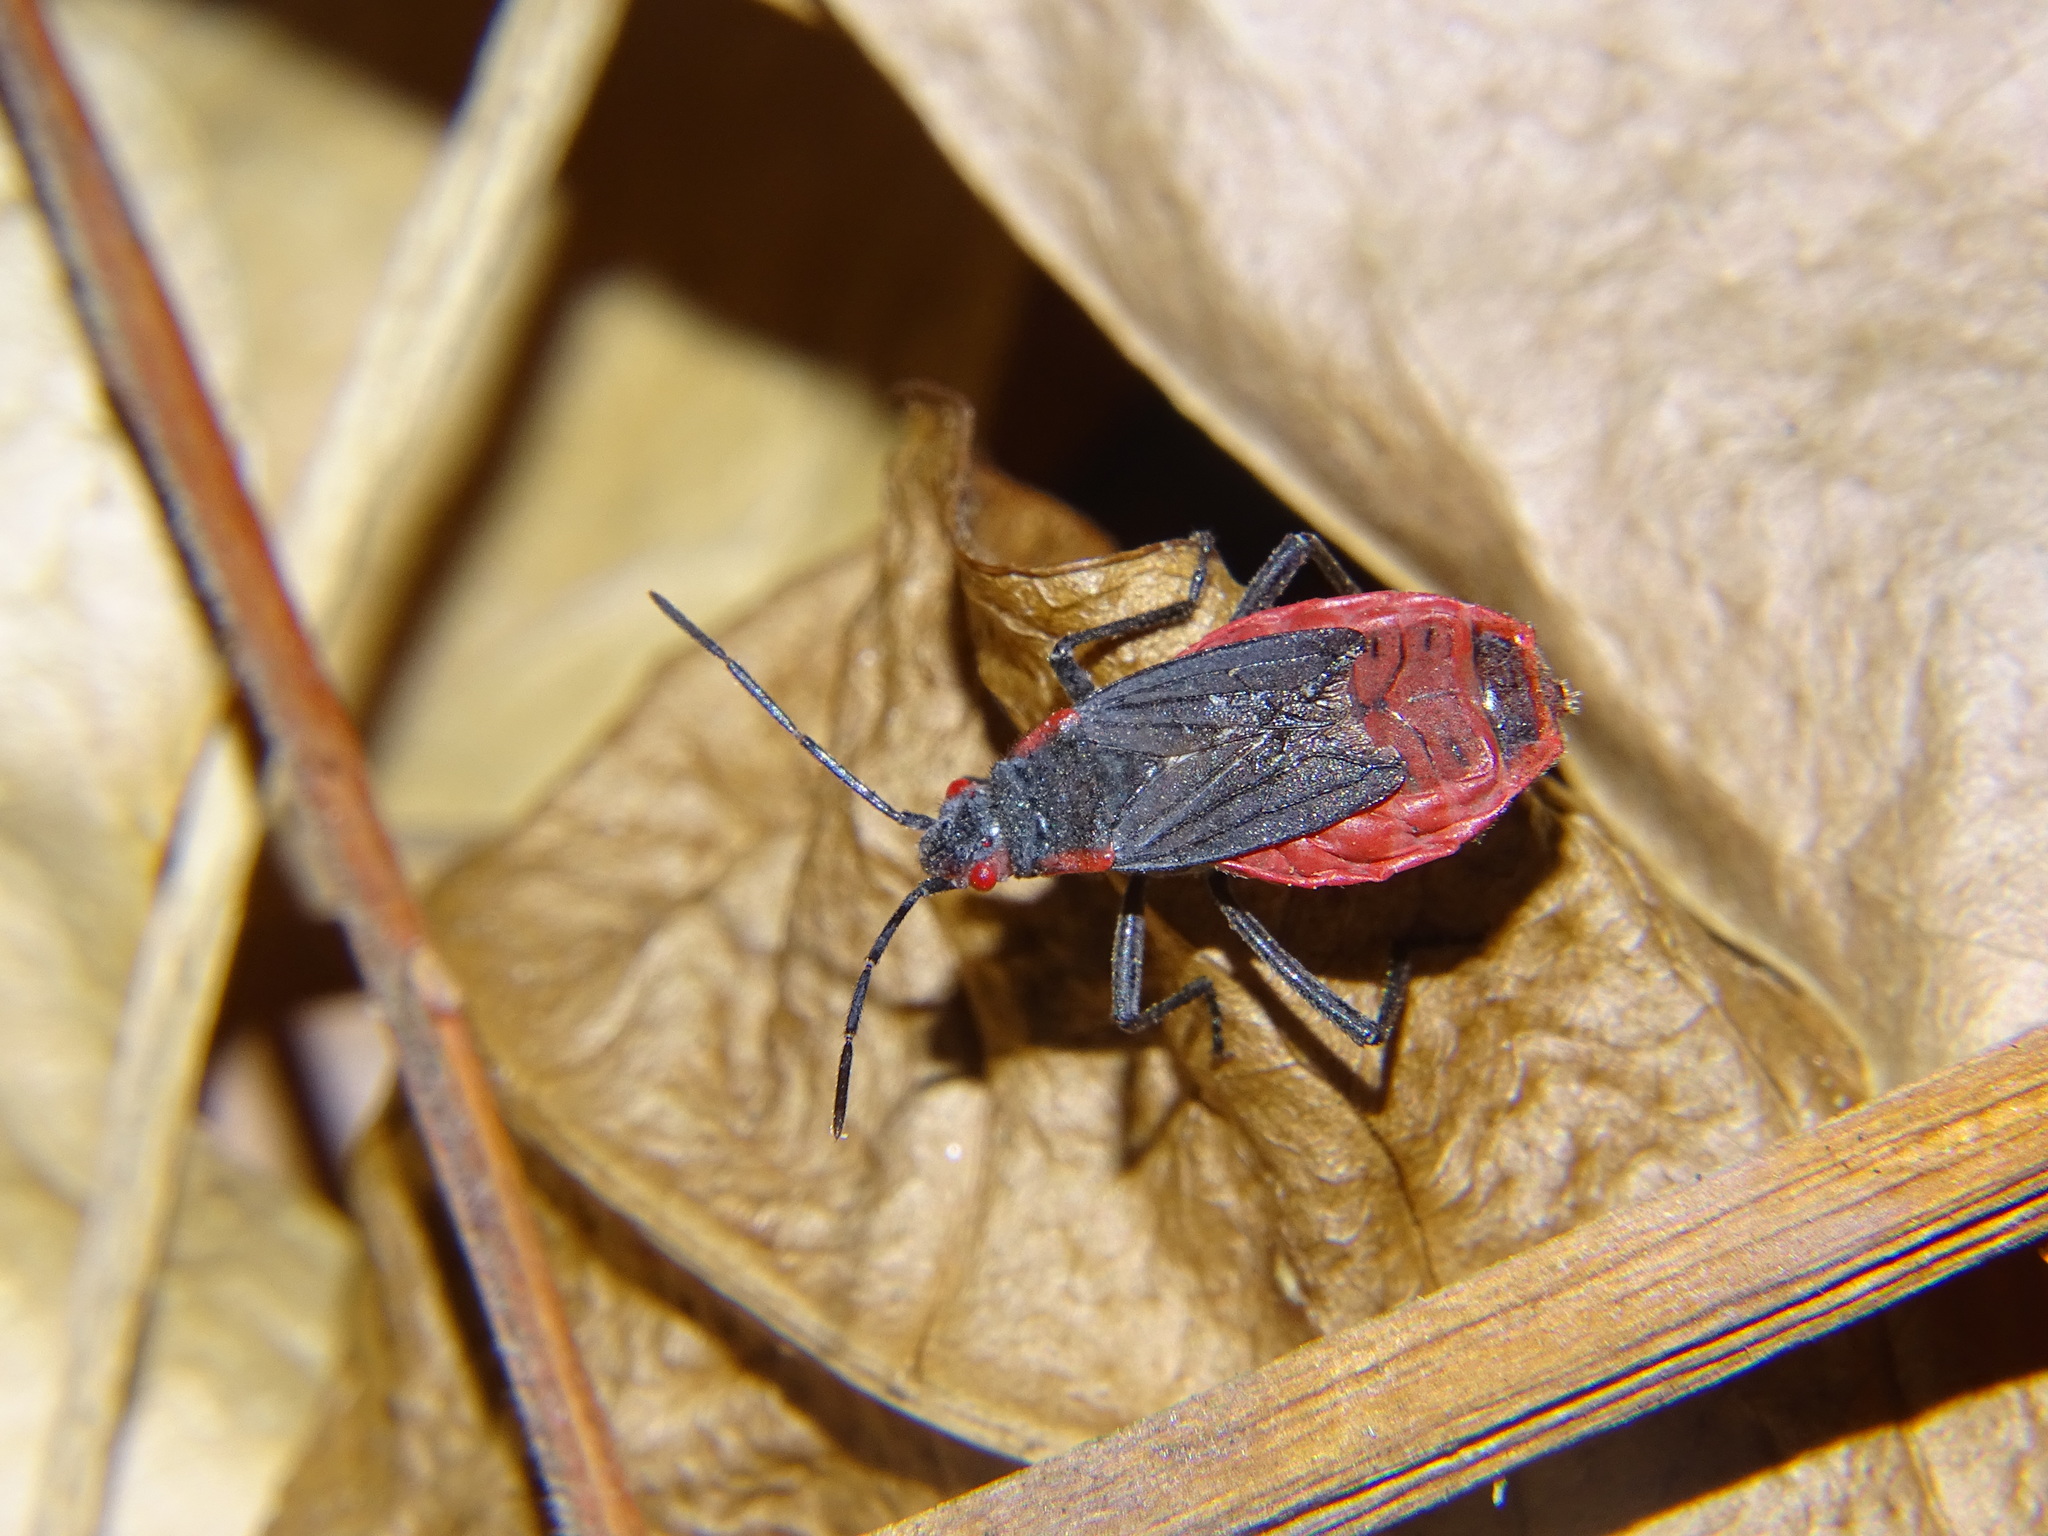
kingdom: Animalia
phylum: Arthropoda
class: Insecta
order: Hemiptera
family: Rhopalidae
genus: Jadera
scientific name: Jadera haematoloma
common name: Red-shouldered bug
